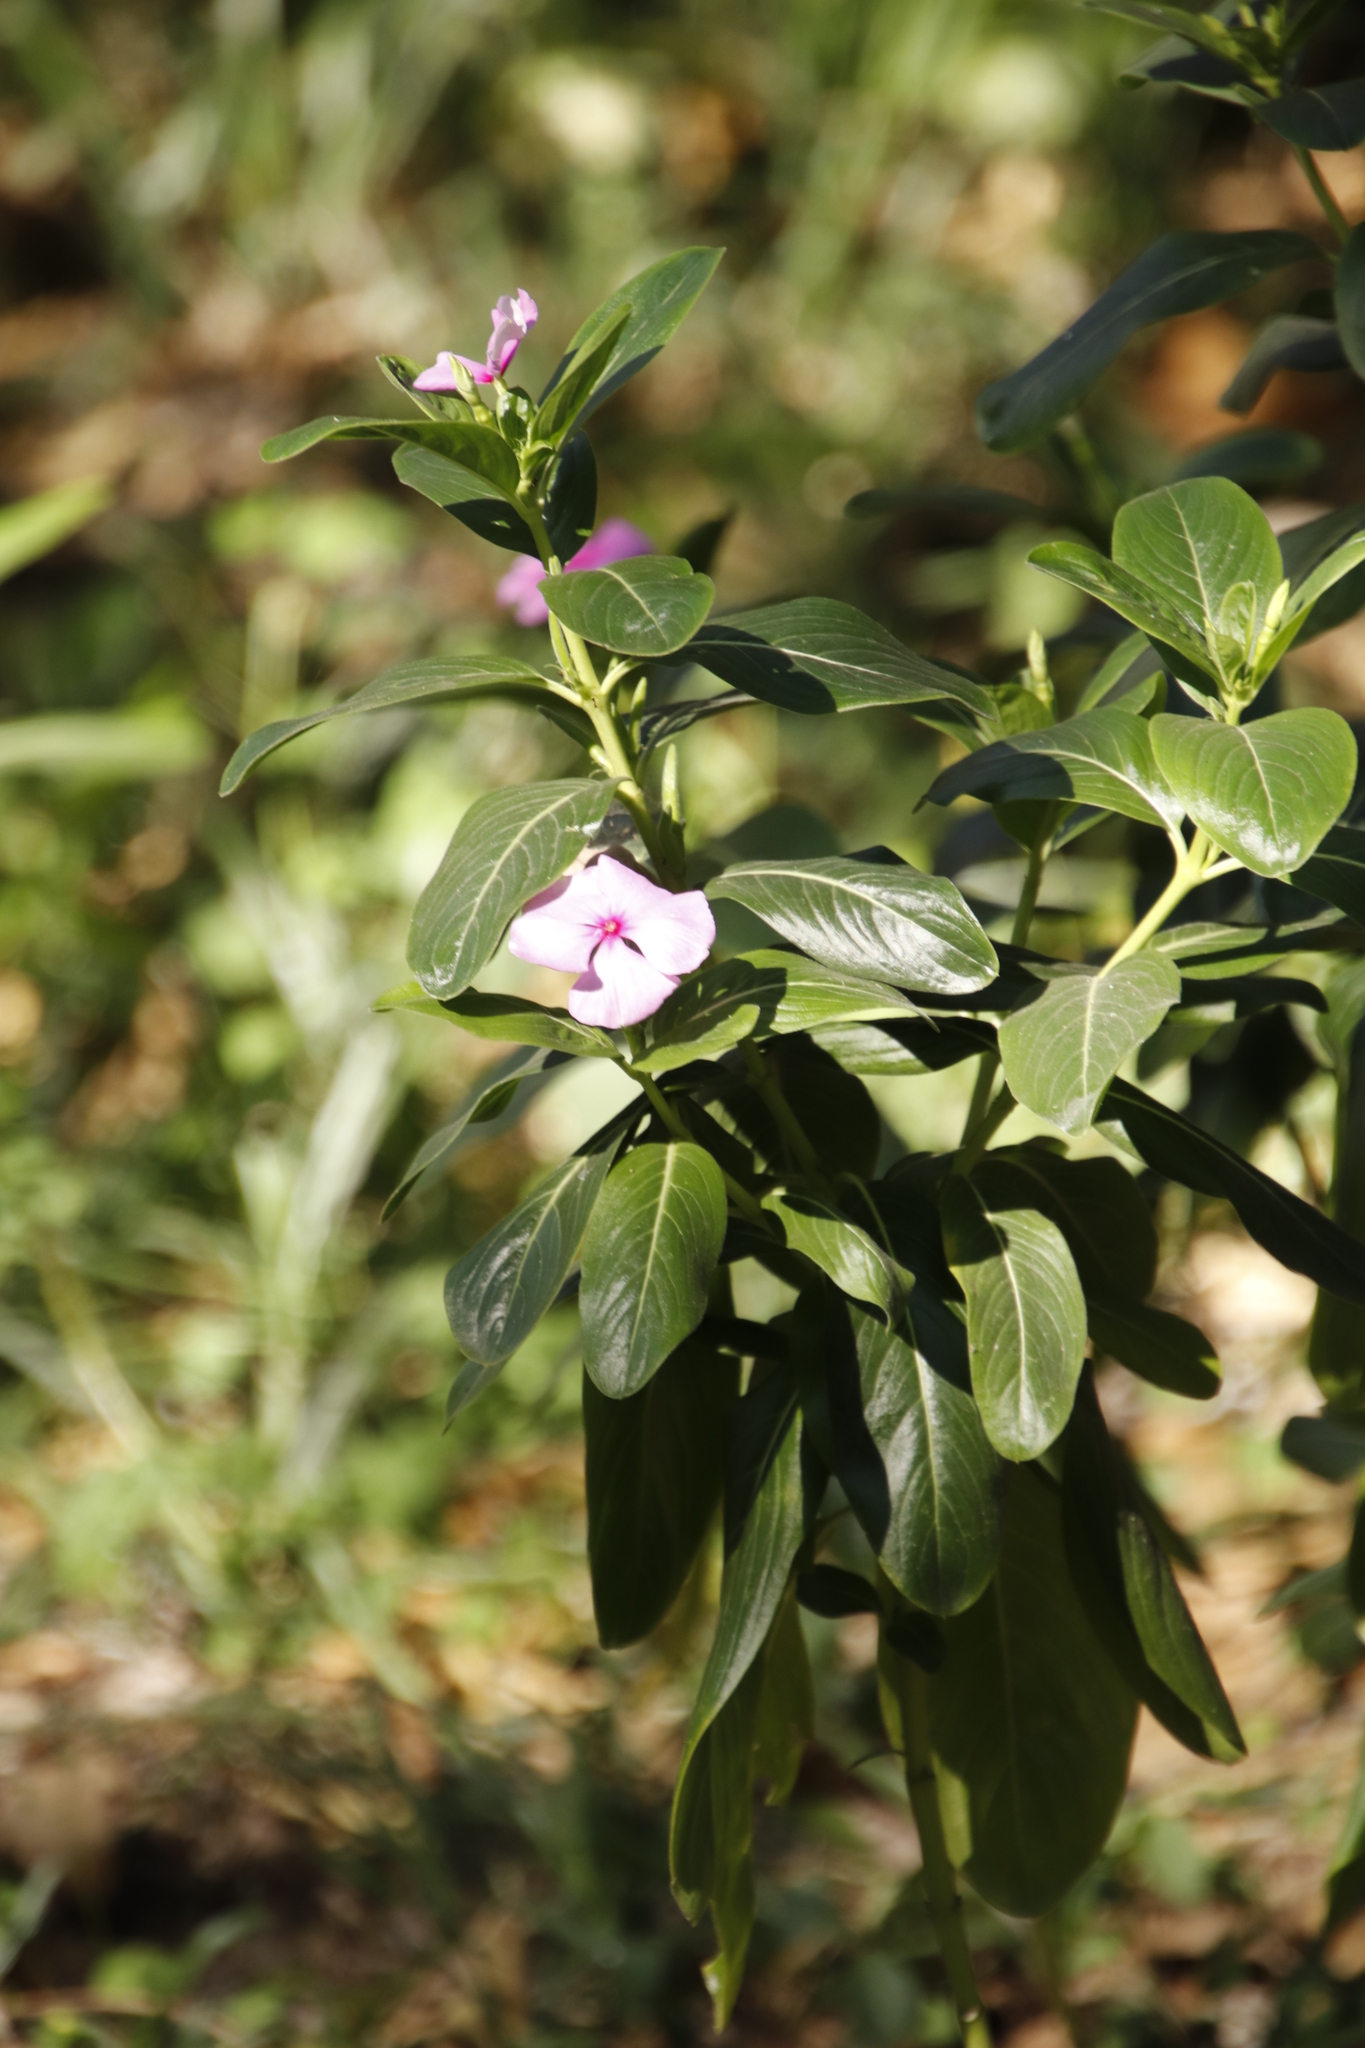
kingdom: Plantae
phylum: Tracheophyta
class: Magnoliopsida
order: Gentianales
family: Apocynaceae
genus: Catharanthus
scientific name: Catharanthus roseus
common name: Madagascar periwinkle
